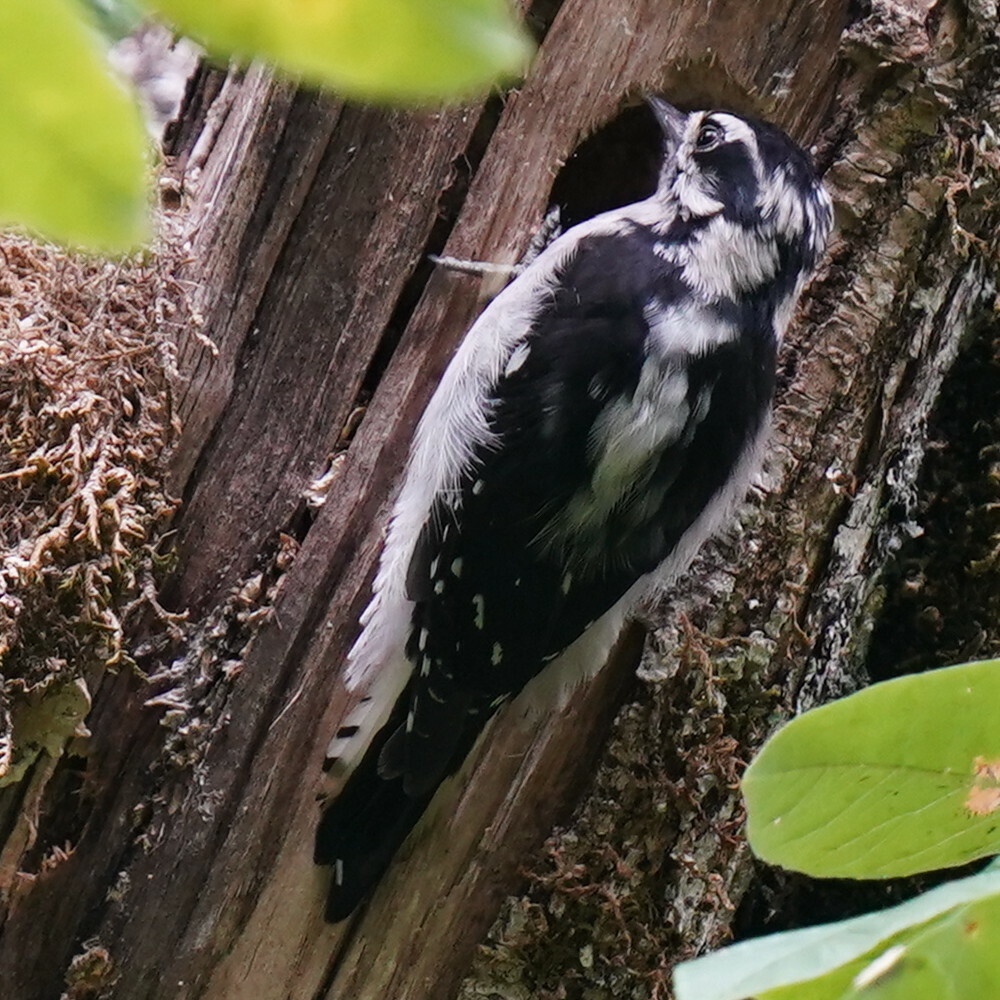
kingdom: Animalia
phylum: Chordata
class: Aves
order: Piciformes
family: Picidae
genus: Dryobates
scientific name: Dryobates pubescens
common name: Downy woodpecker
